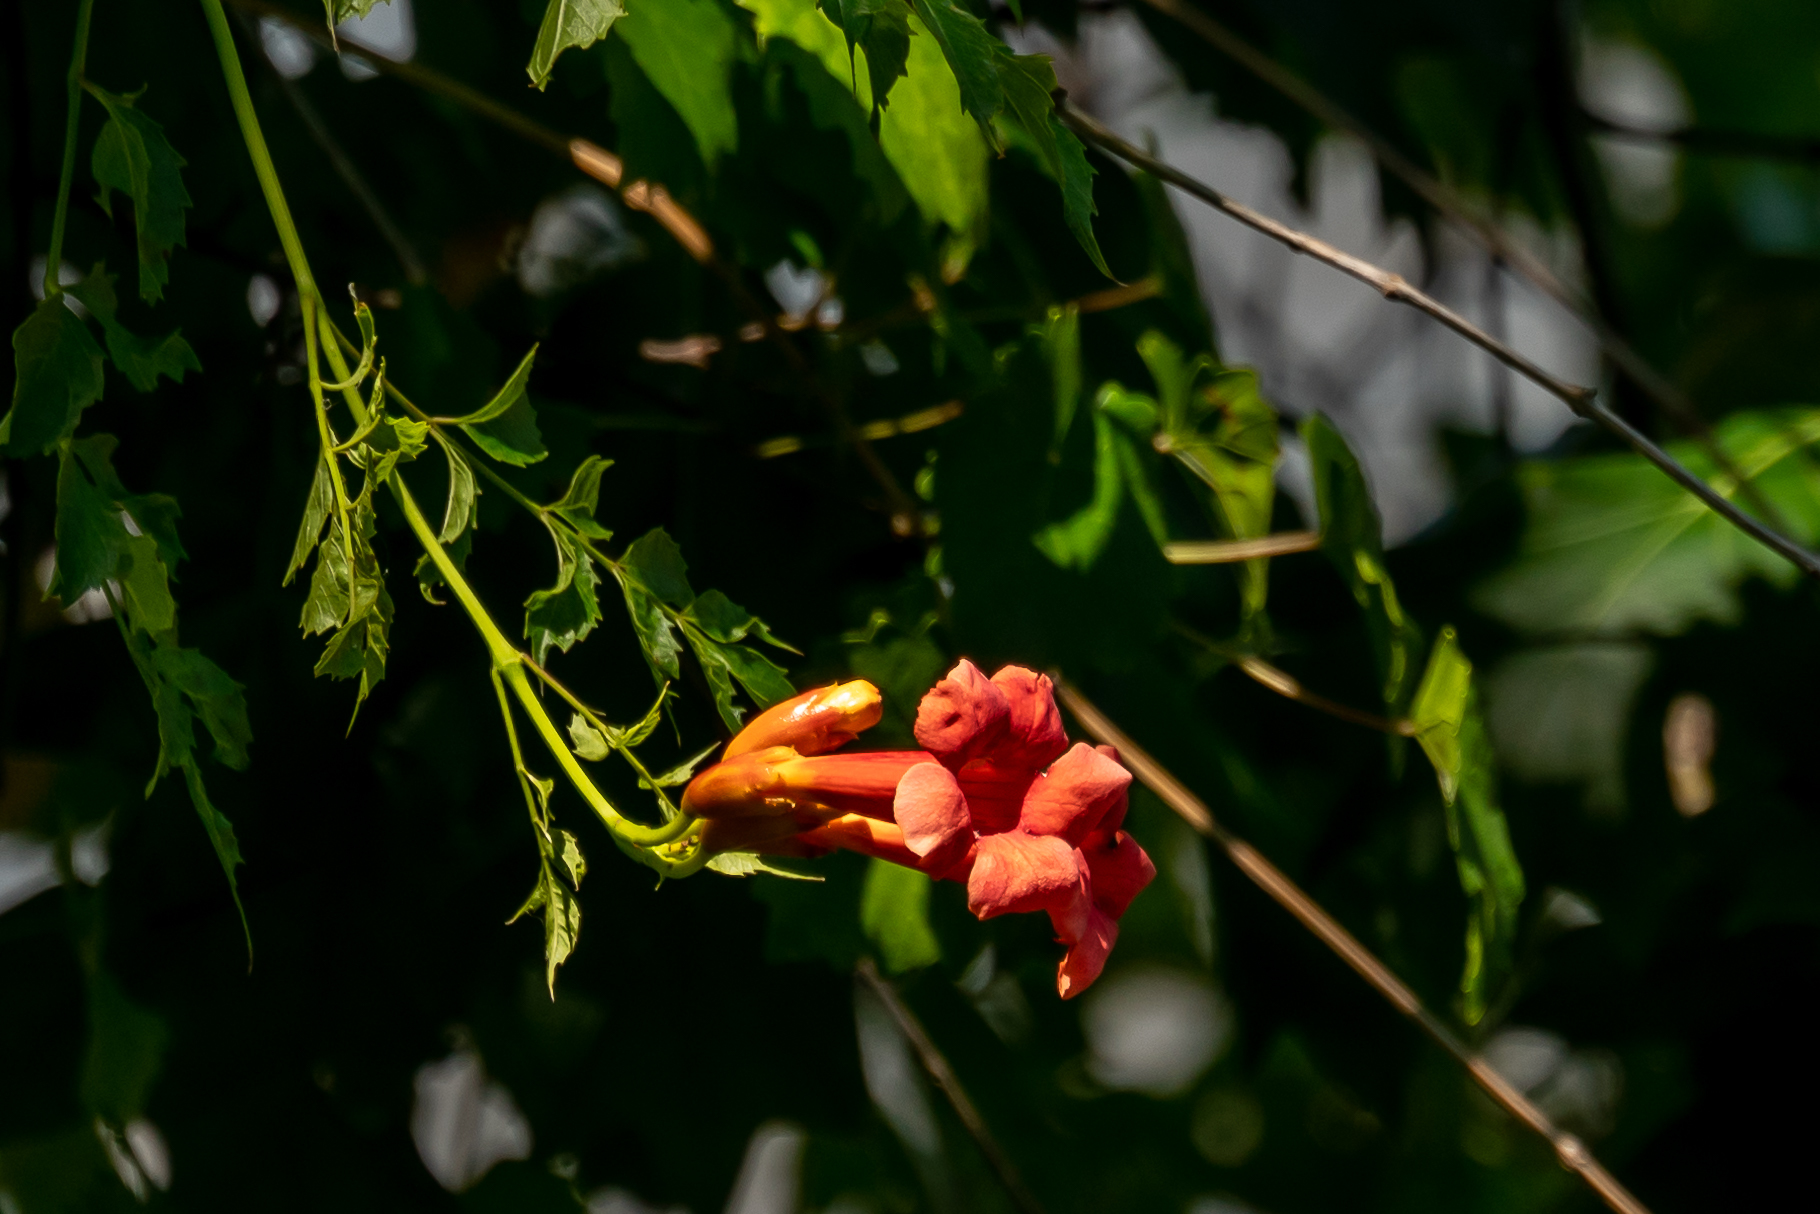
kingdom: Plantae
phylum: Tracheophyta
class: Magnoliopsida
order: Lamiales
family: Bignoniaceae
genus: Campsis
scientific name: Campsis radicans
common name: Trumpet-creeper
